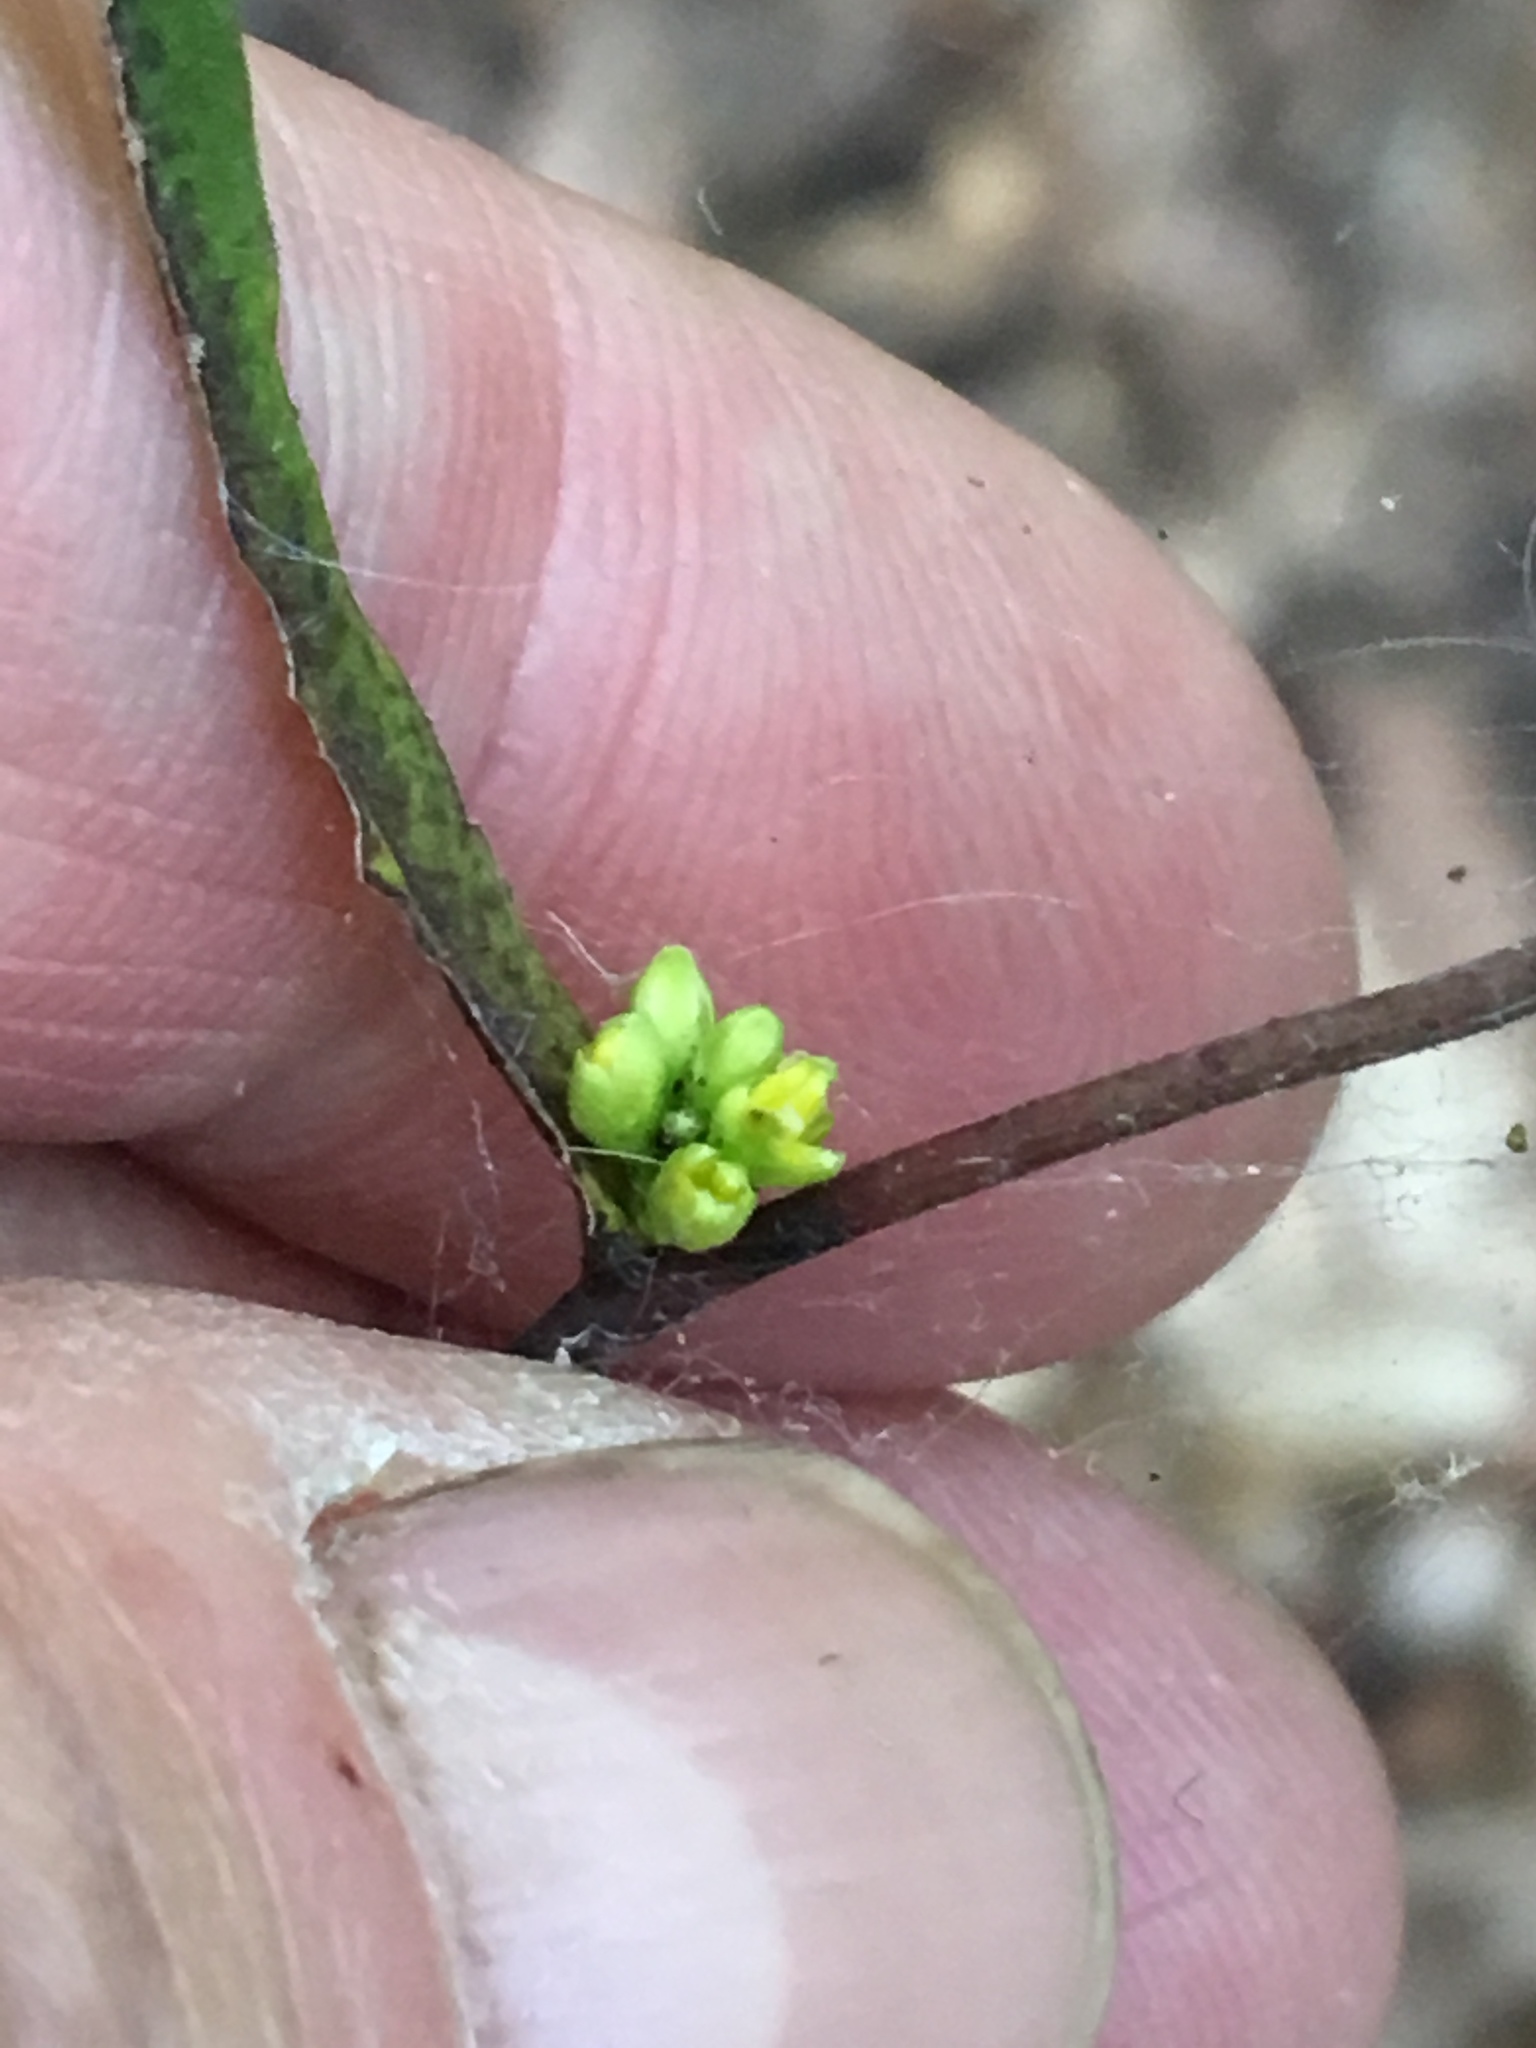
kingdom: Plantae
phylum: Tracheophyta
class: Magnoliopsida
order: Asterales
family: Asteraceae
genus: Solidago
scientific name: Solidago caesia
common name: Woodland goldenrod
